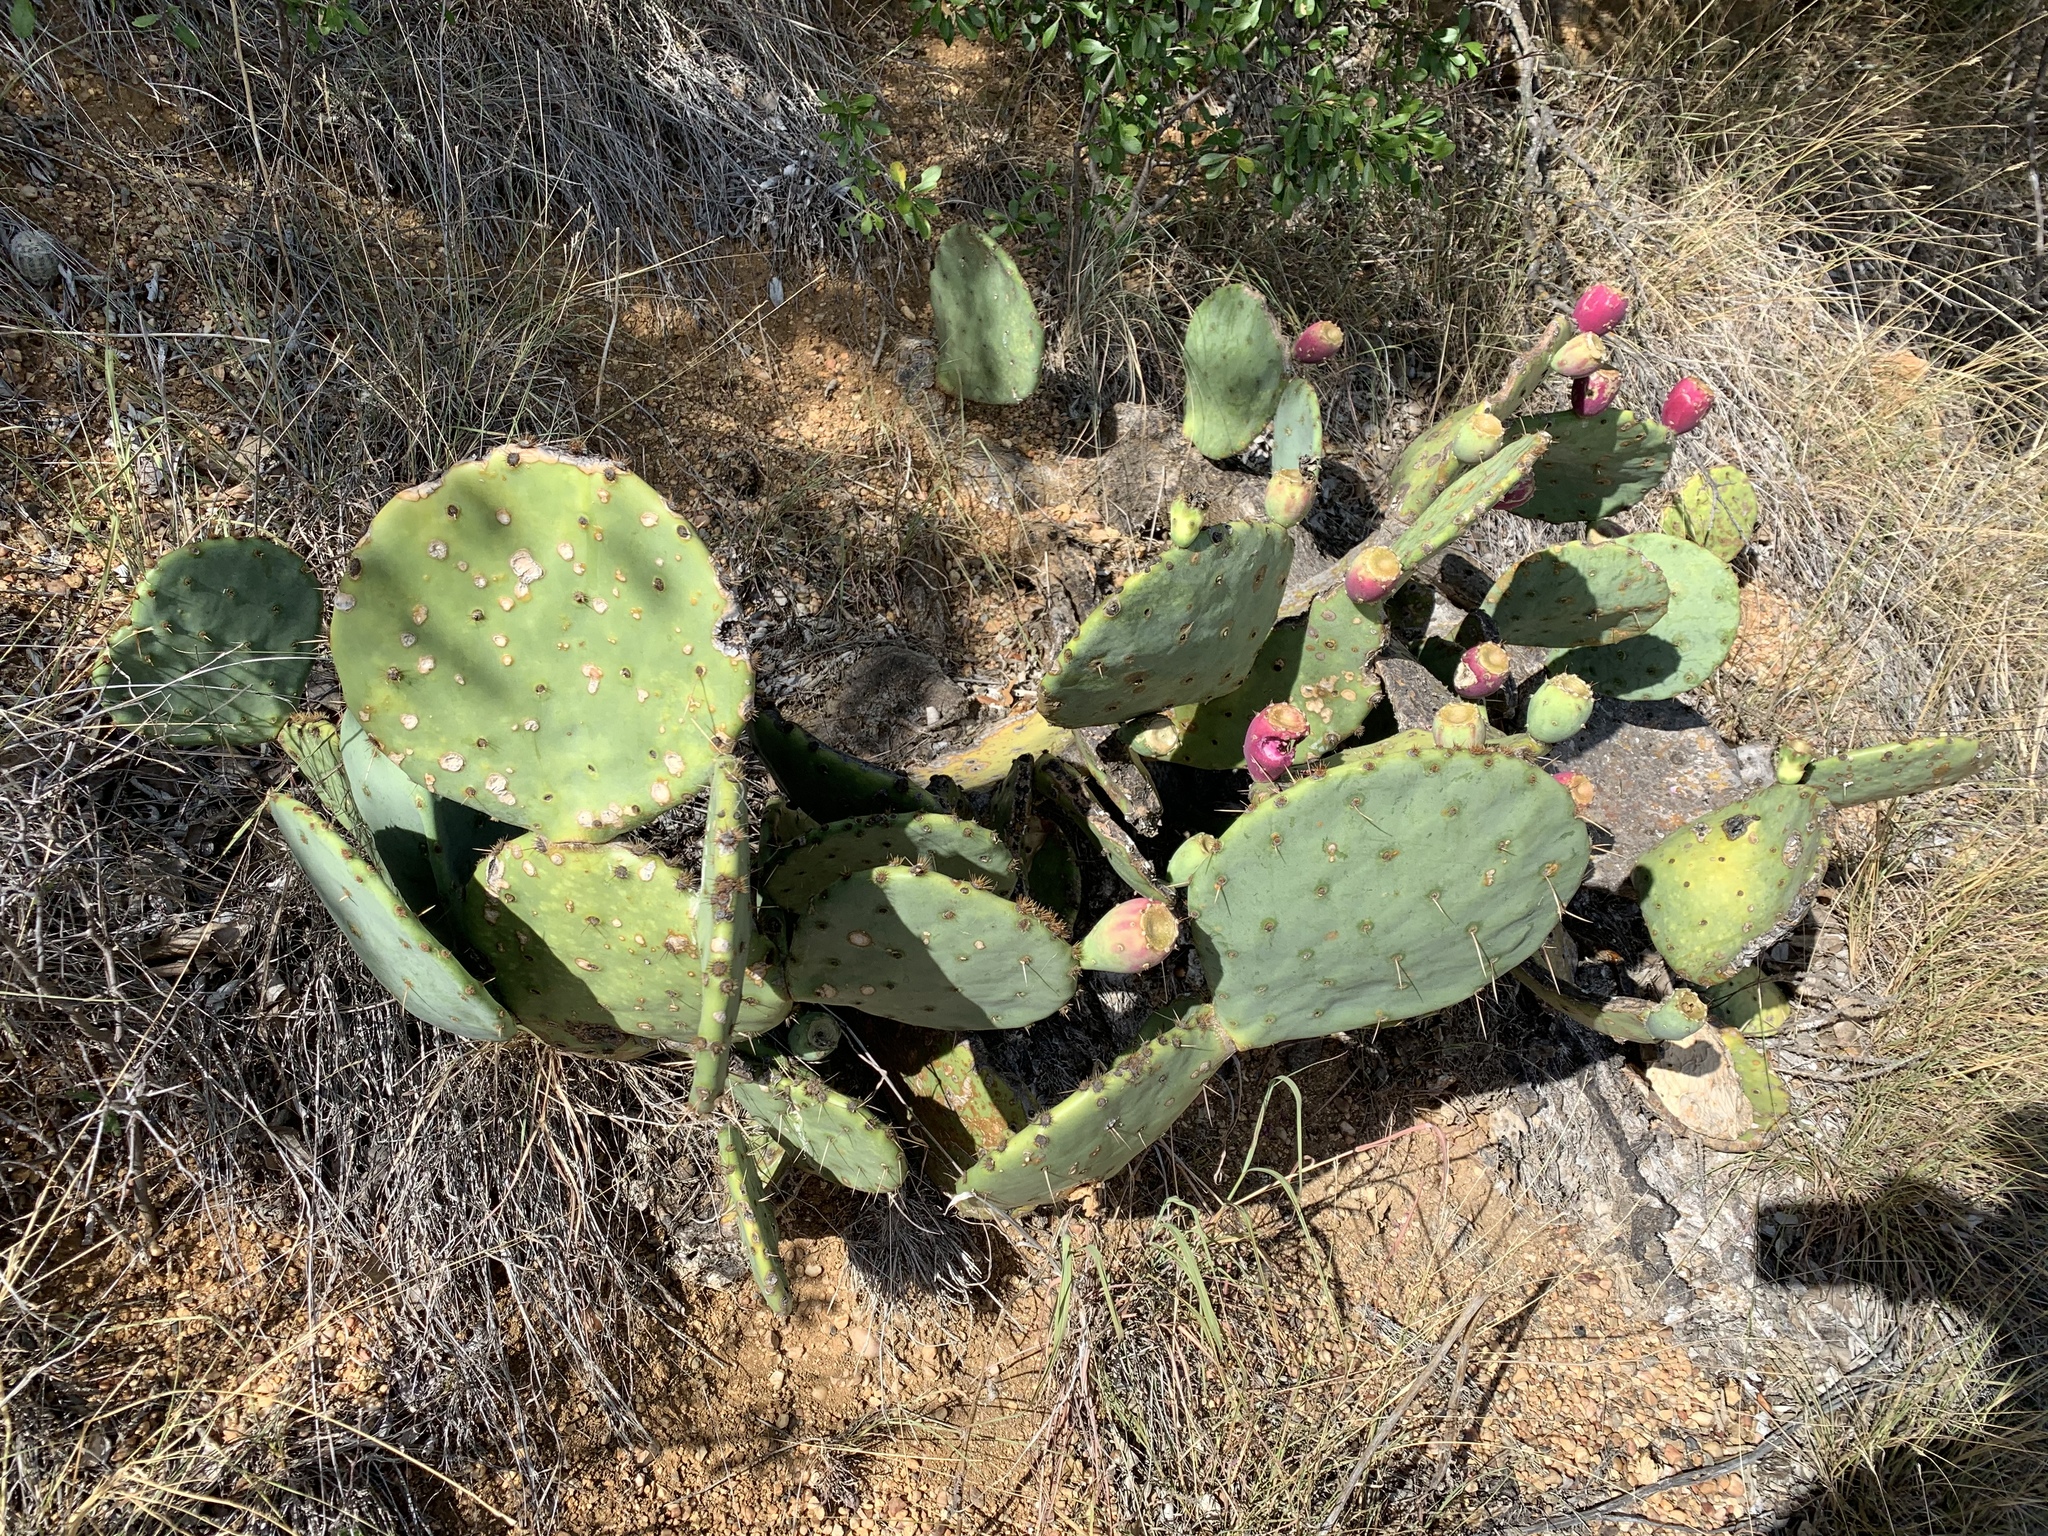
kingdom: Plantae
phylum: Tracheophyta
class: Magnoliopsida
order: Caryophyllales
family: Cactaceae
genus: Opuntia
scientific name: Opuntia engelmannii
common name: Cactus-apple
